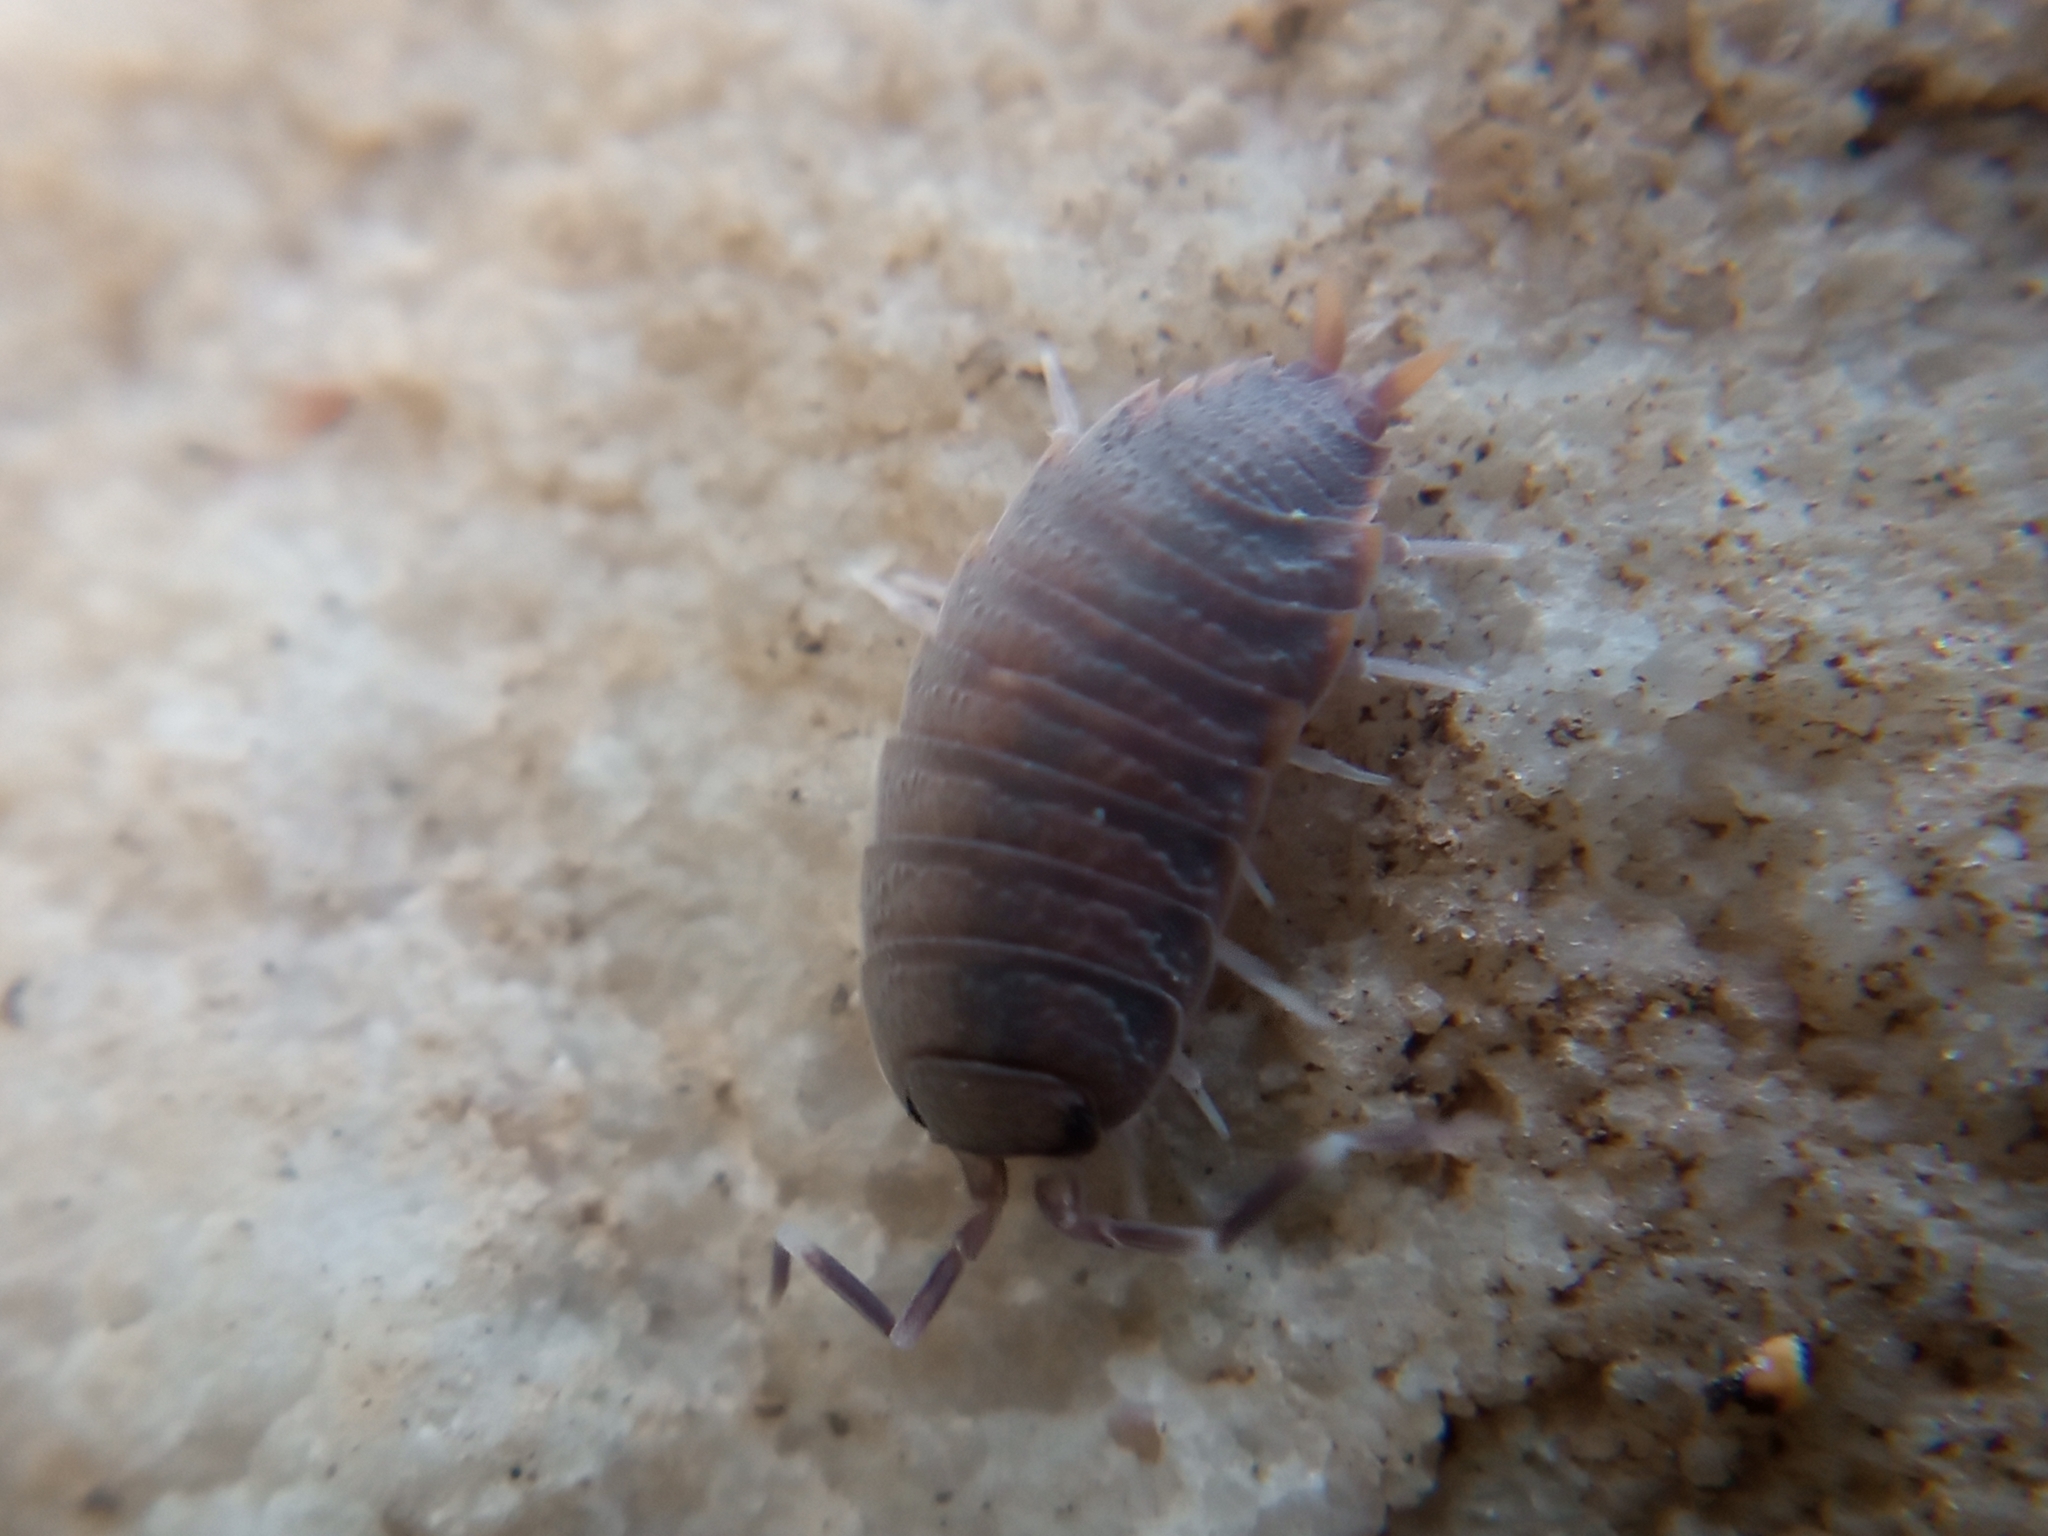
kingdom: Animalia
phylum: Arthropoda
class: Malacostraca
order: Isopoda
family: Porcellionidae
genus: Porcellionides
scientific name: Porcellionides pruinosus
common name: Plum woodlouse
